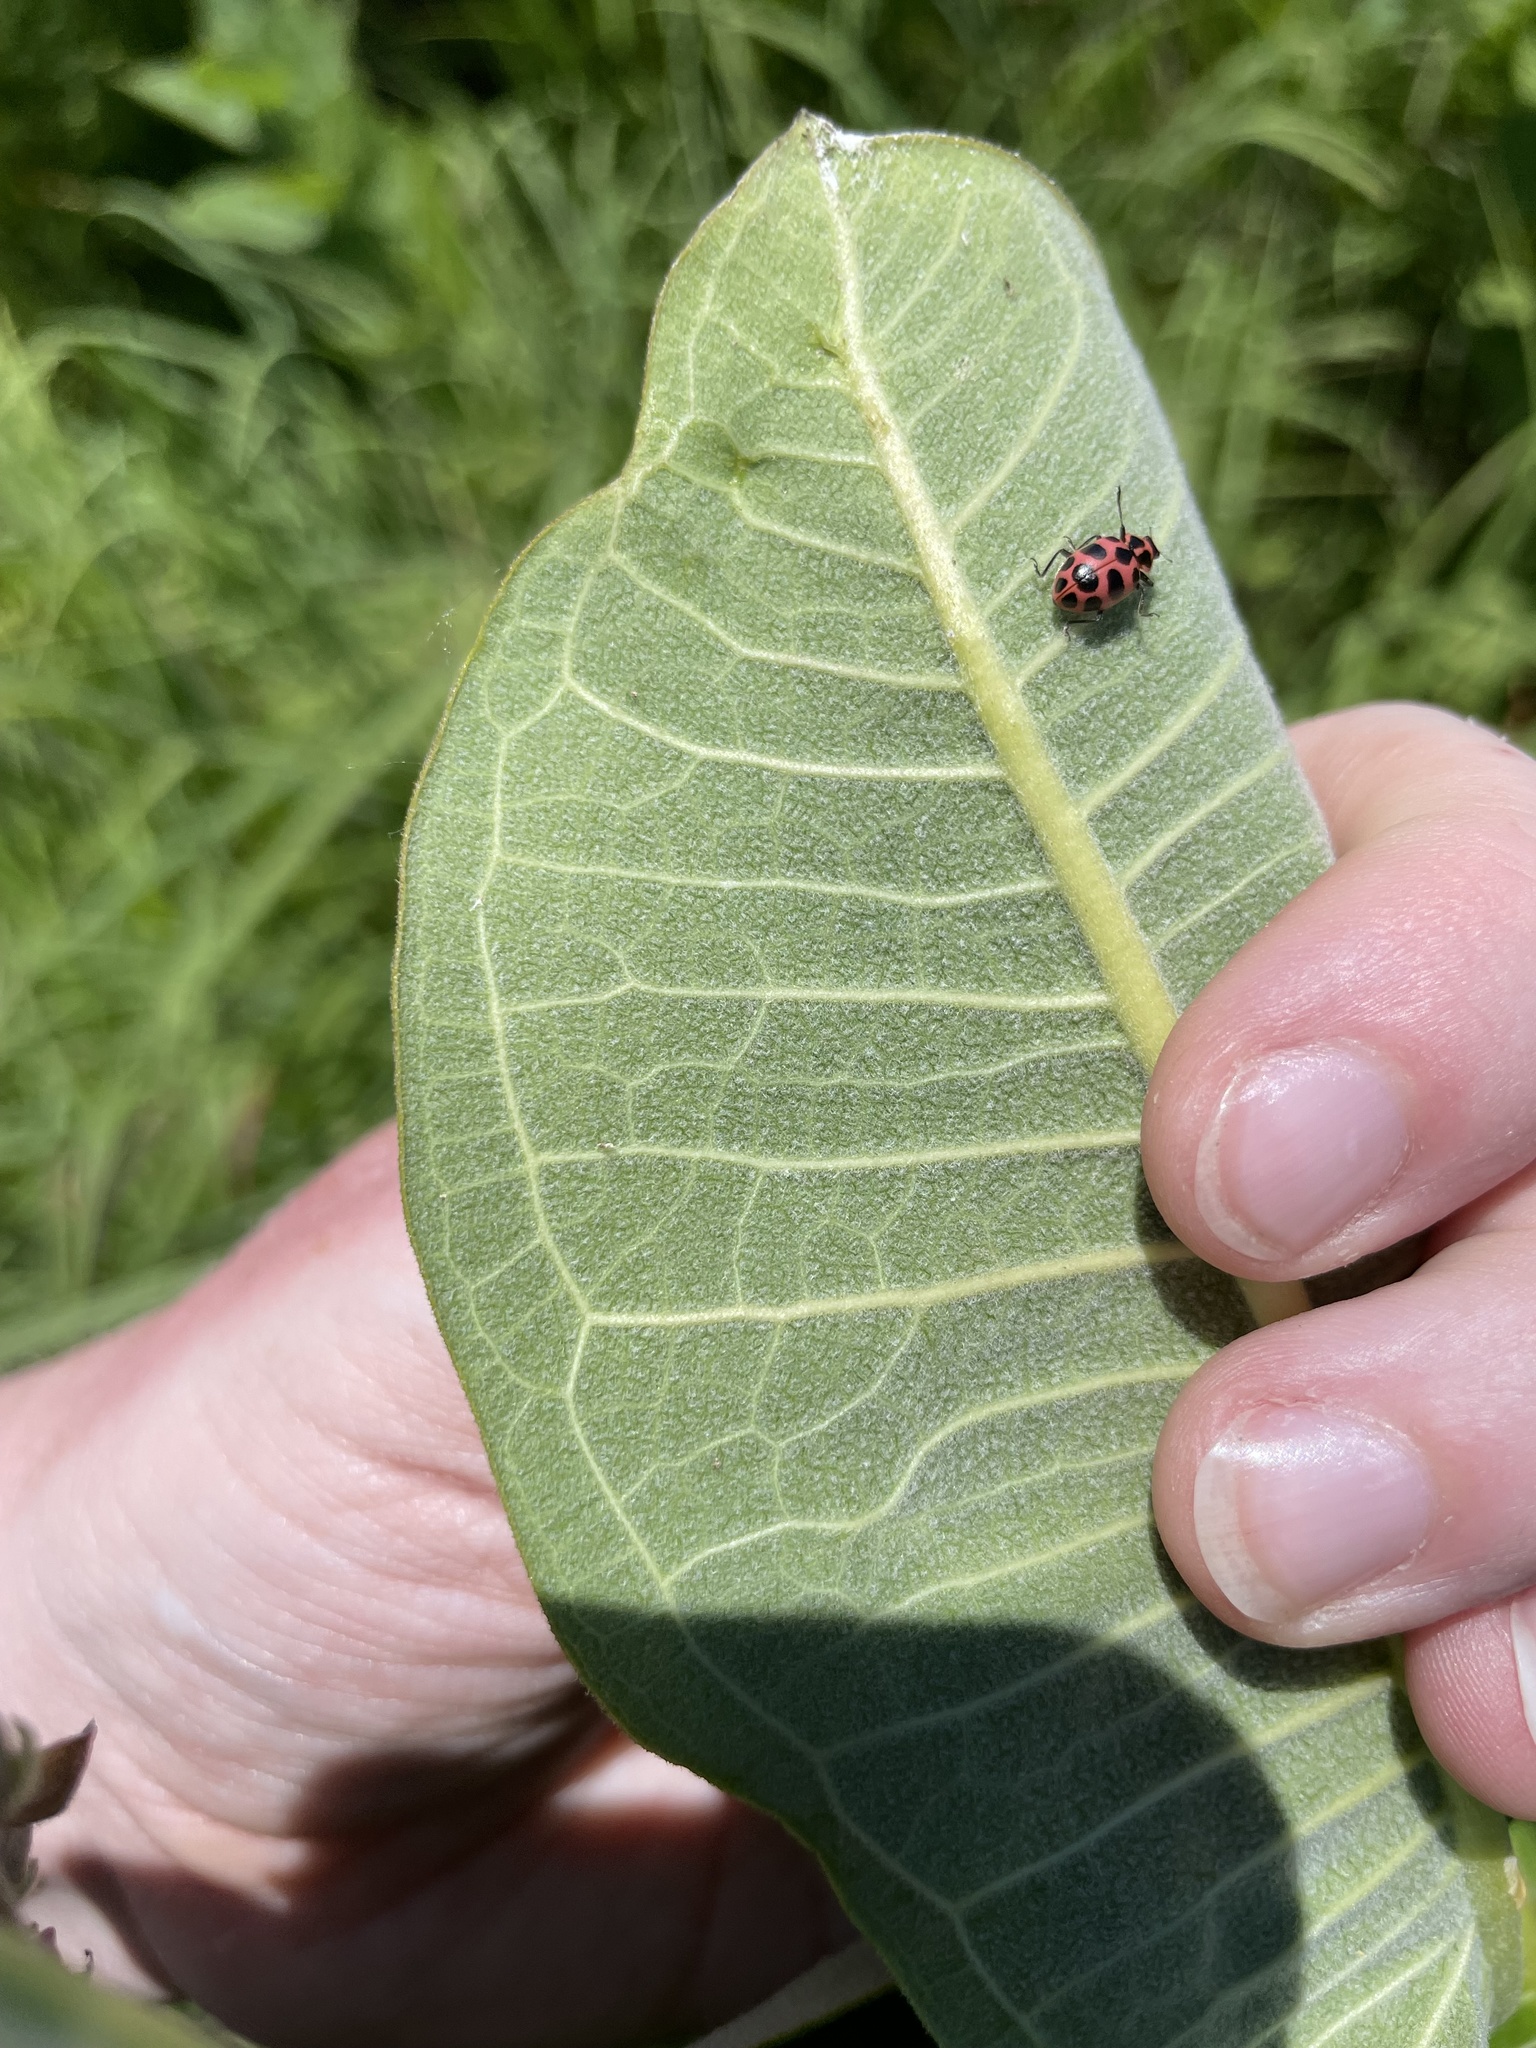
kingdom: Animalia
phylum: Arthropoda
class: Insecta
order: Coleoptera
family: Coccinellidae
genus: Coleomegilla
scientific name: Coleomegilla maculata
